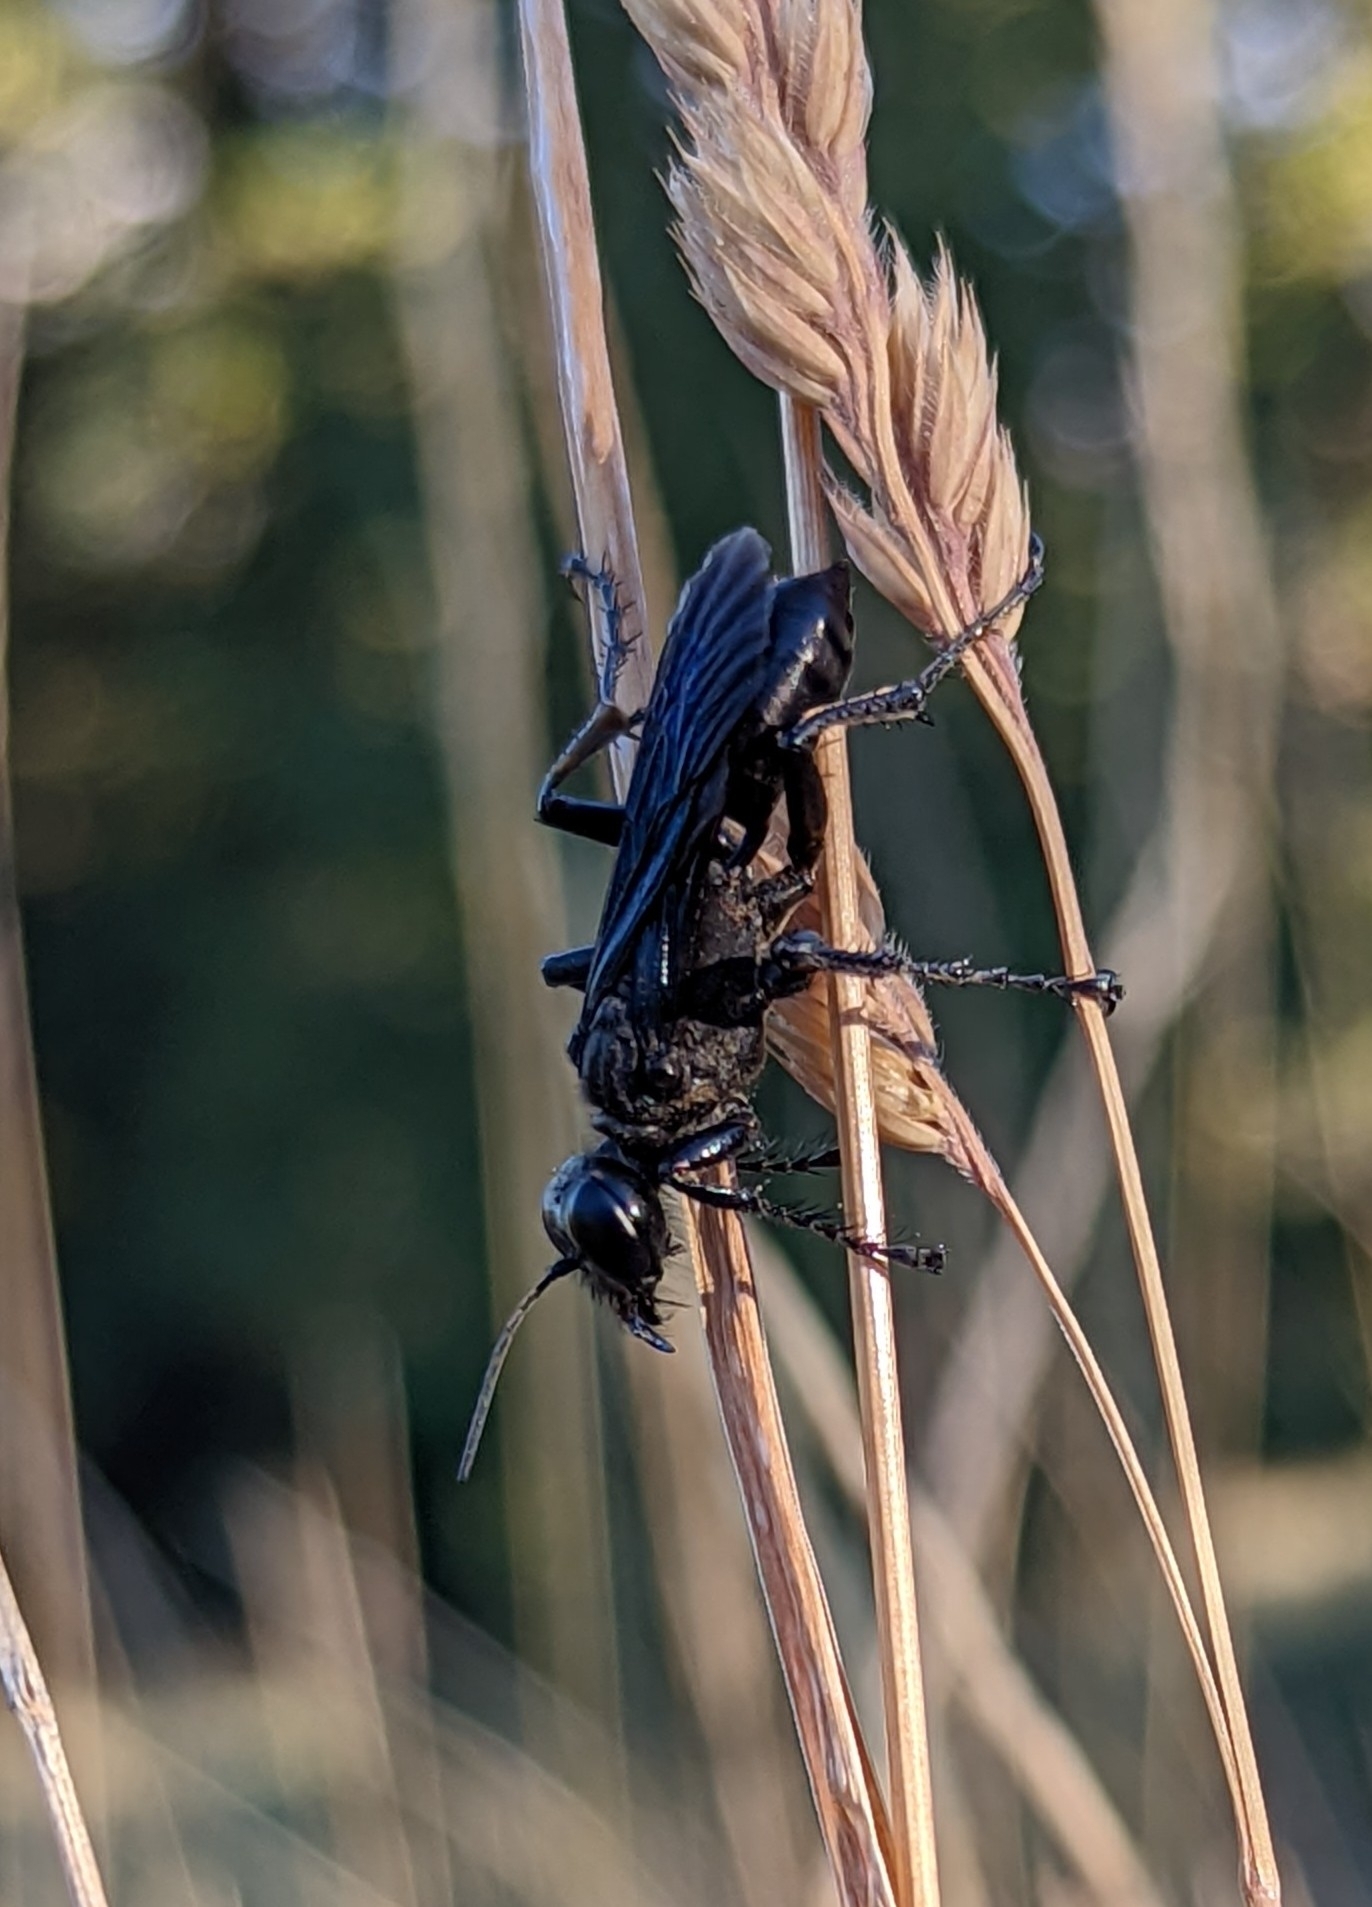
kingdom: Animalia
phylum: Arthropoda
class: Insecta
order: Hymenoptera
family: Sphecidae
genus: Prionyx
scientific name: Prionyx atratus
